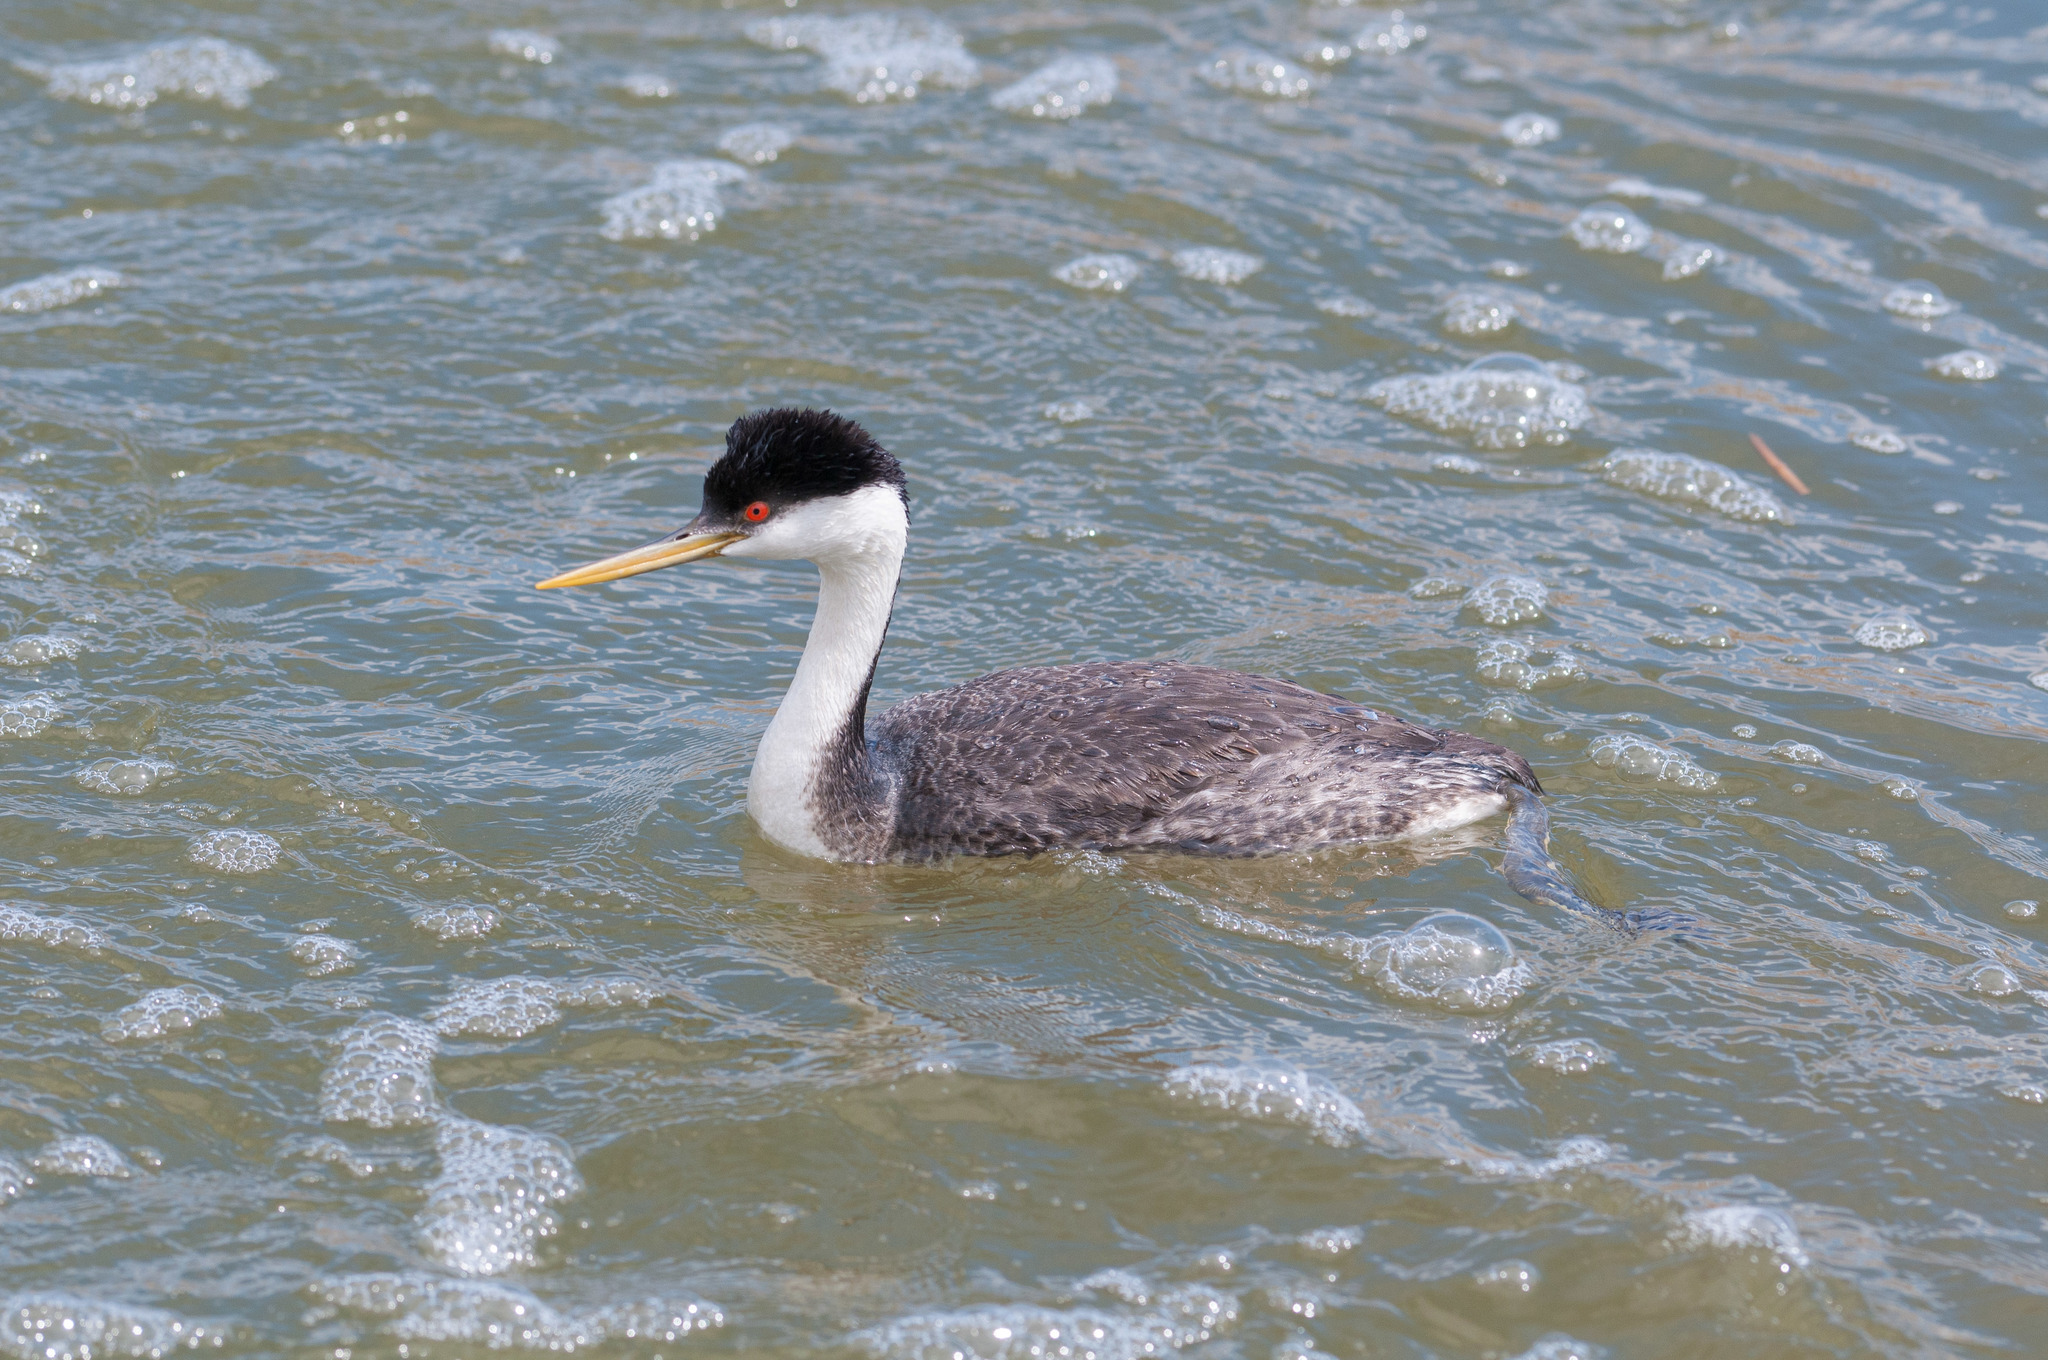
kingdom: Animalia
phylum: Chordata
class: Aves
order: Podicipediformes
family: Podicipedidae
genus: Aechmophorus
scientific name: Aechmophorus occidentalis
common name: Western grebe
